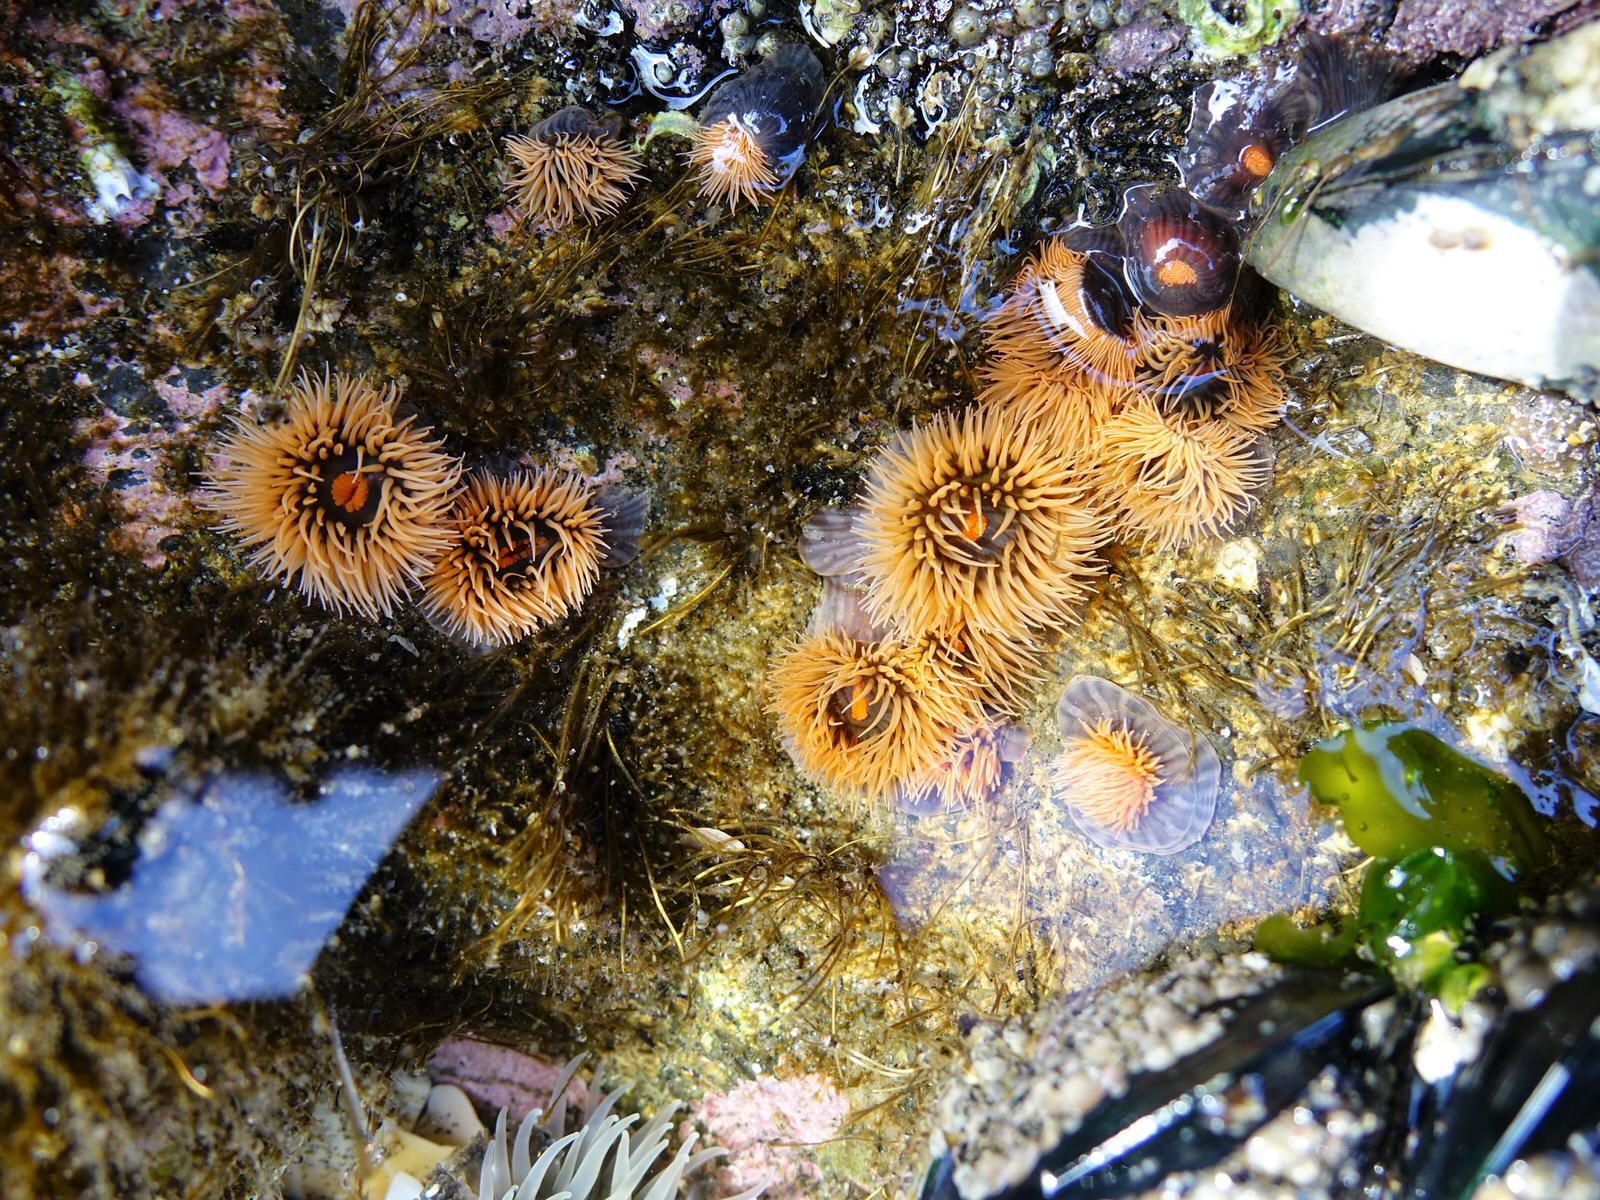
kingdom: Animalia
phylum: Cnidaria
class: Anthozoa
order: Actiniaria
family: Diadumenidae
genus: Diadumene
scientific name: Diadumene neozelanica
